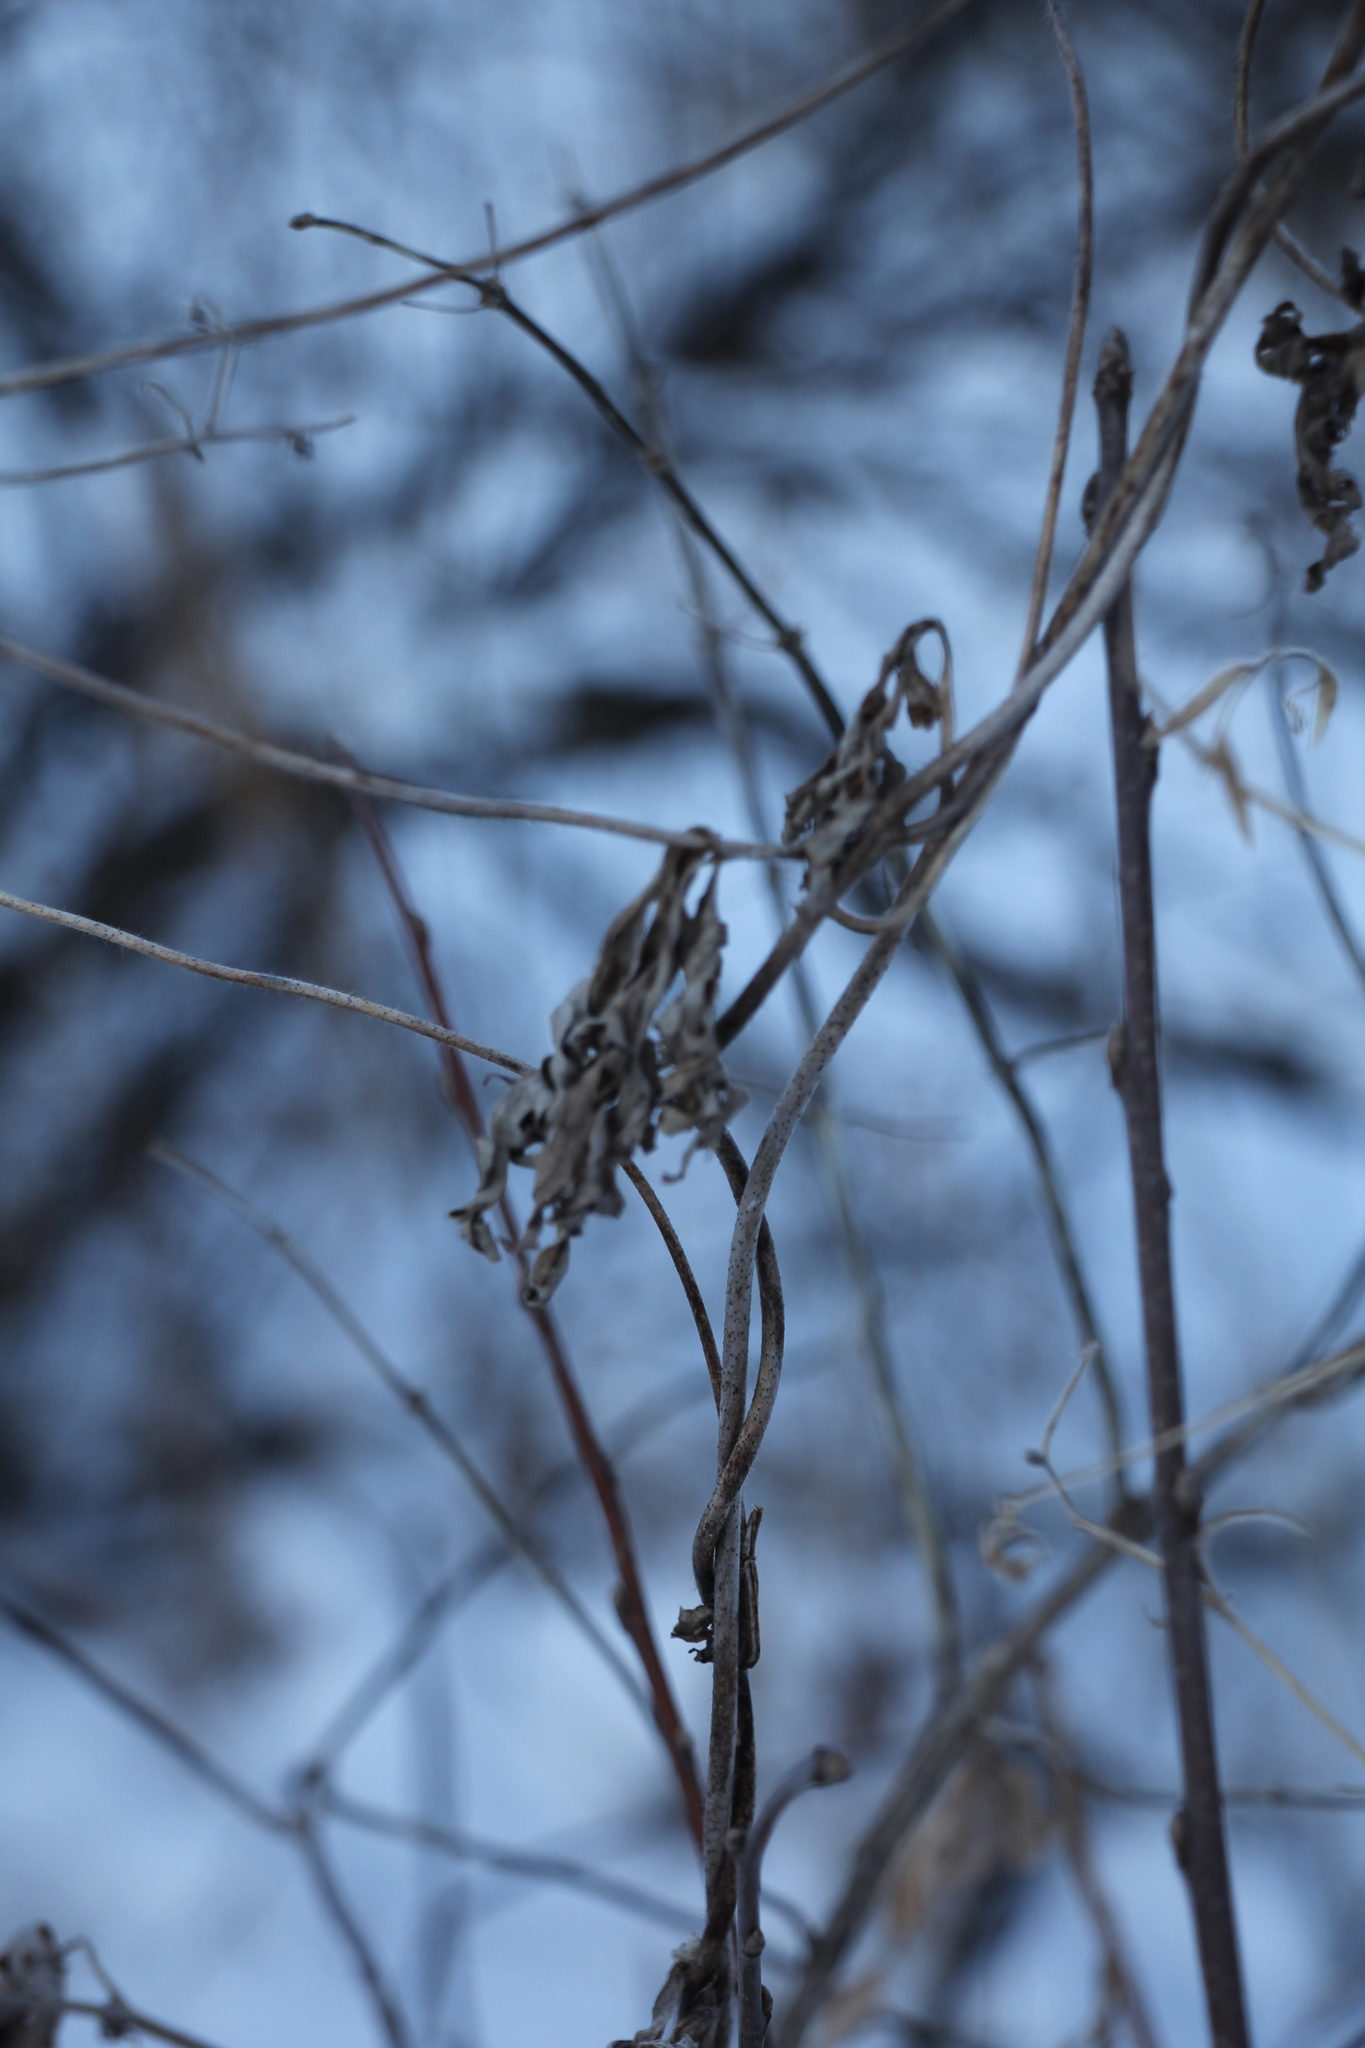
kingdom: Plantae
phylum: Tracheophyta
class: Magnoliopsida
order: Ranunculales
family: Ranunculaceae
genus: Aconitum
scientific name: Aconitum volubile
